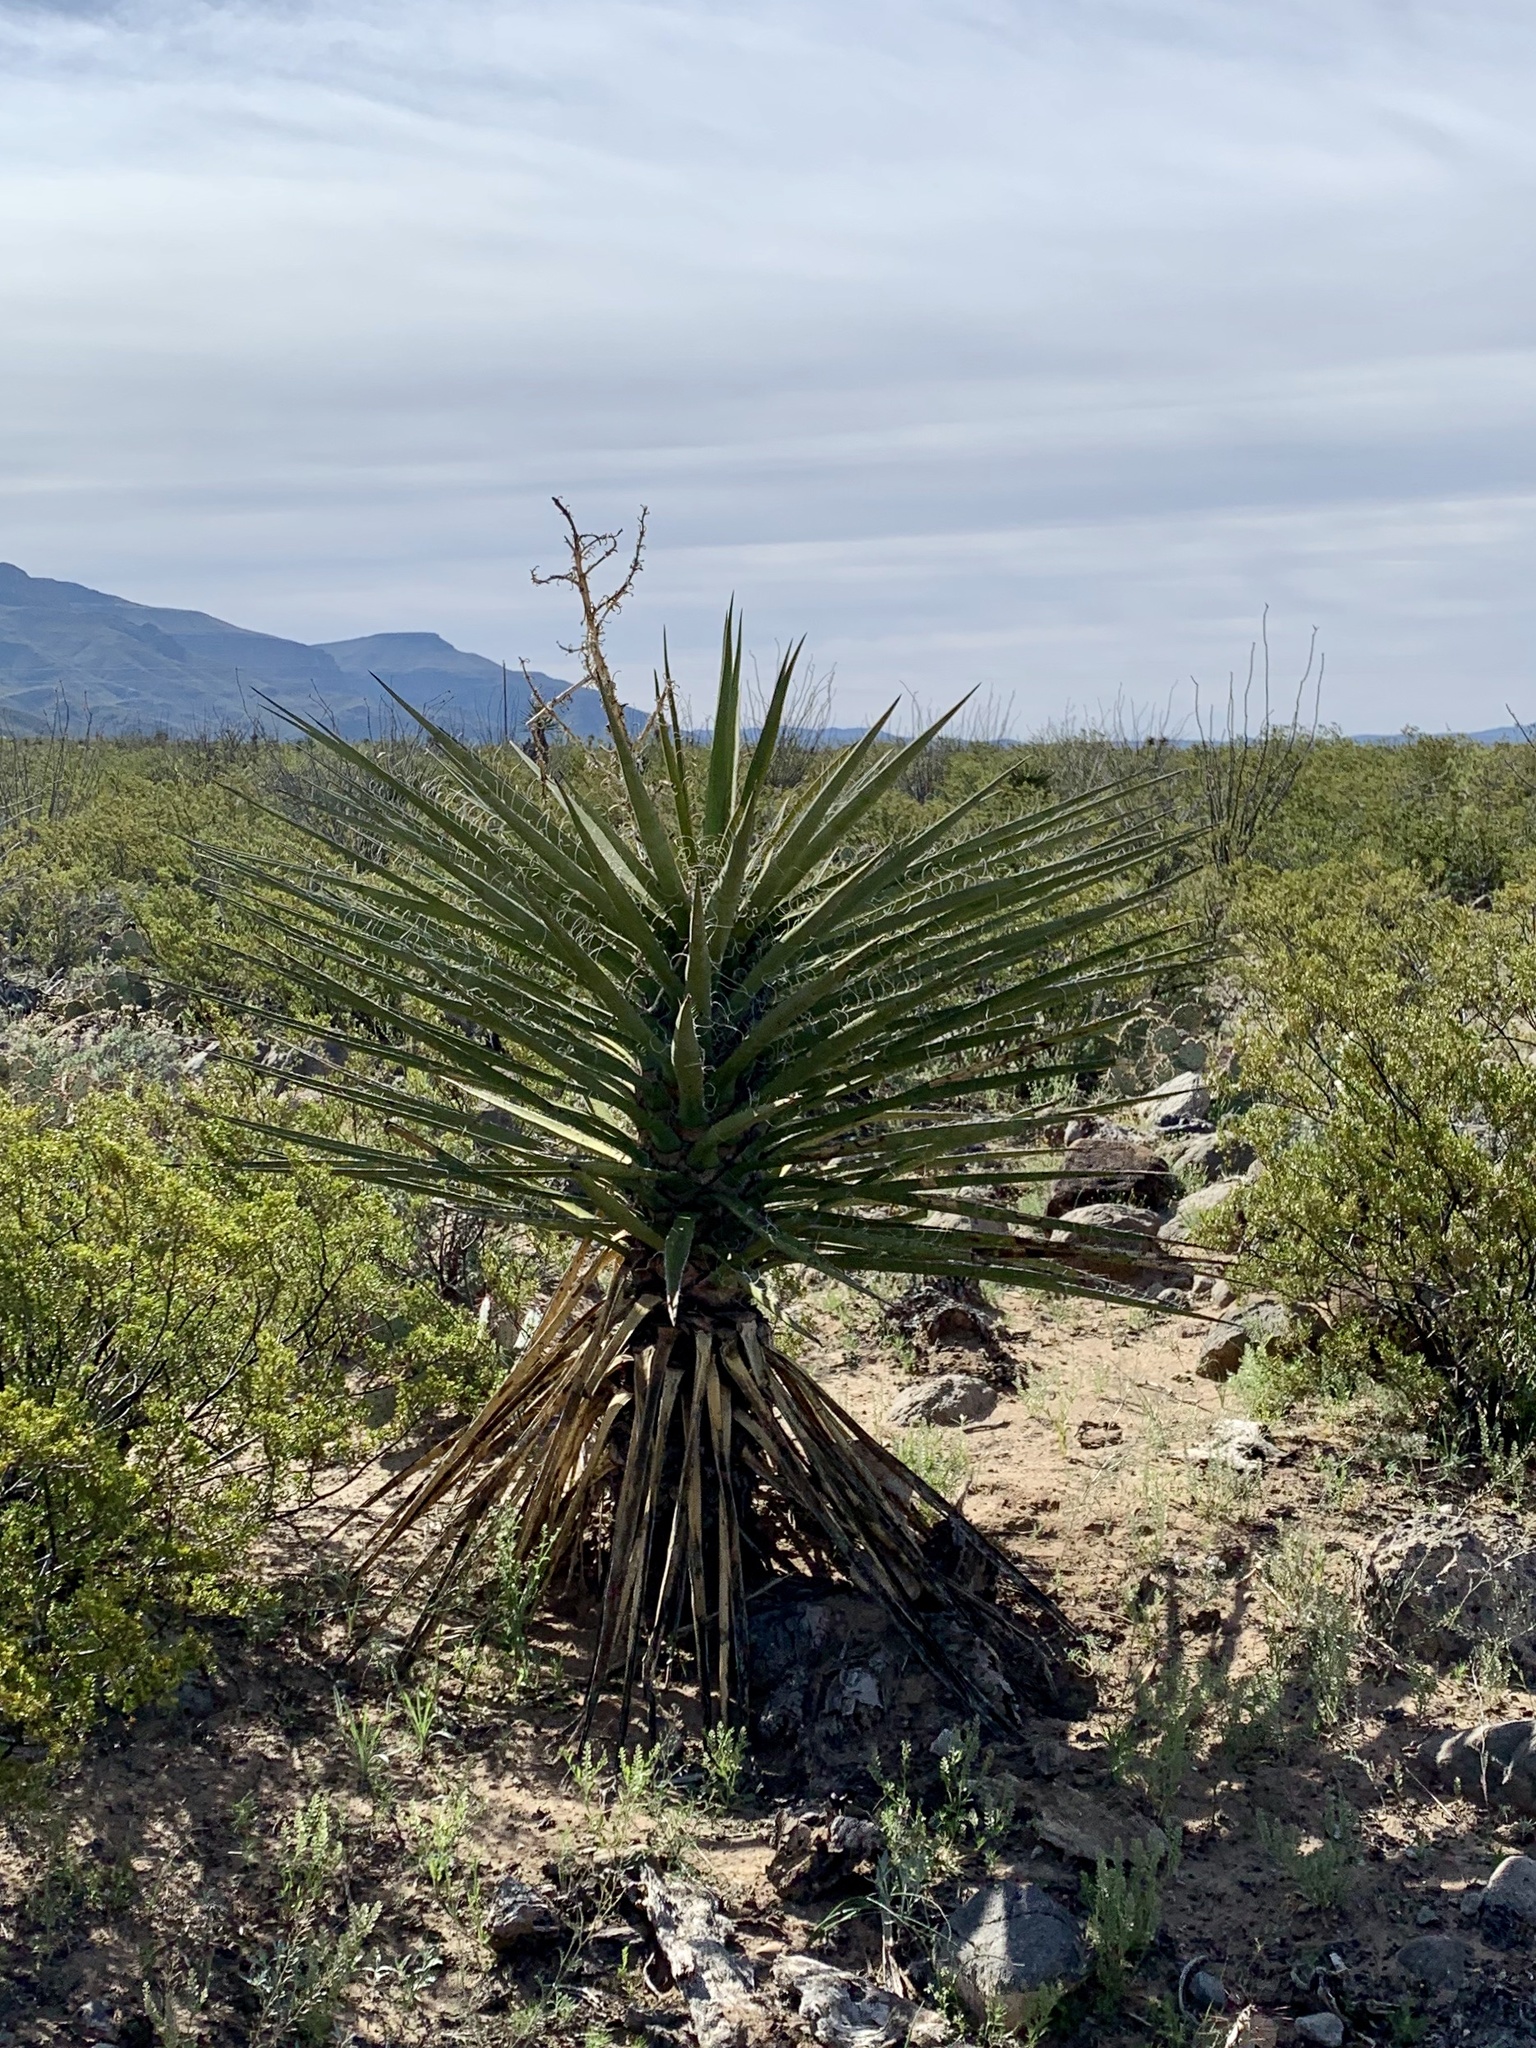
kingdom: Plantae
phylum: Tracheophyta
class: Liliopsida
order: Asparagales
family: Asparagaceae
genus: Yucca
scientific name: Yucca treculiana
